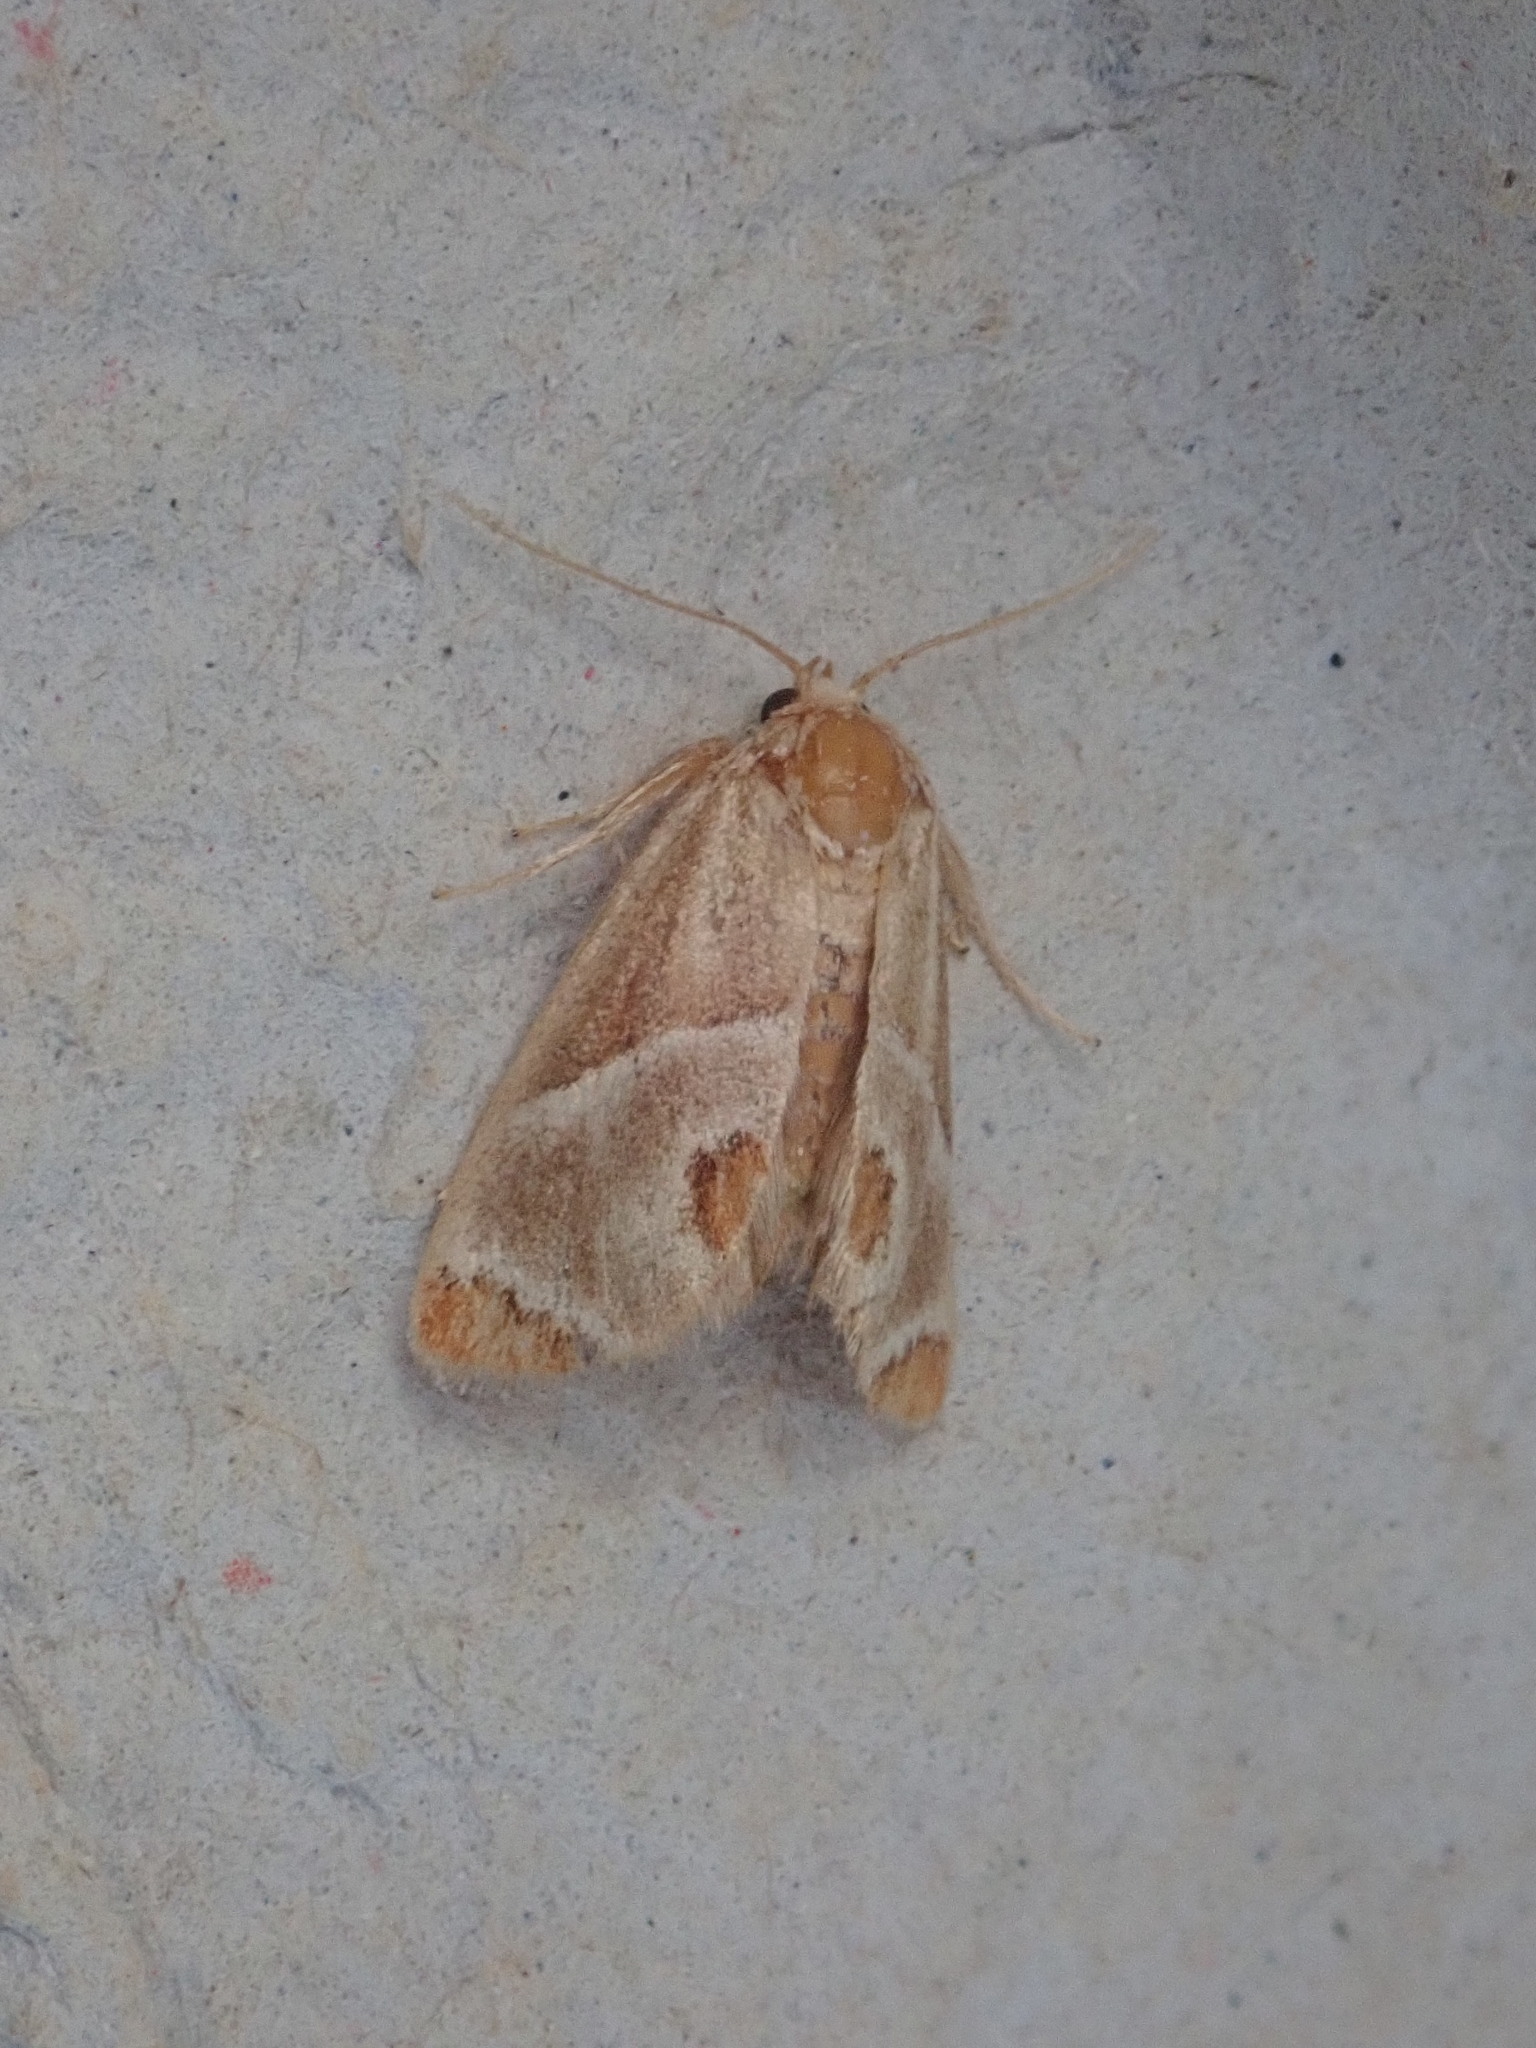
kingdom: Animalia
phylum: Arthropoda
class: Insecta
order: Lepidoptera
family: Limacodidae
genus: Apoda
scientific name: Apoda biguttata
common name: Shagreened slug moth
